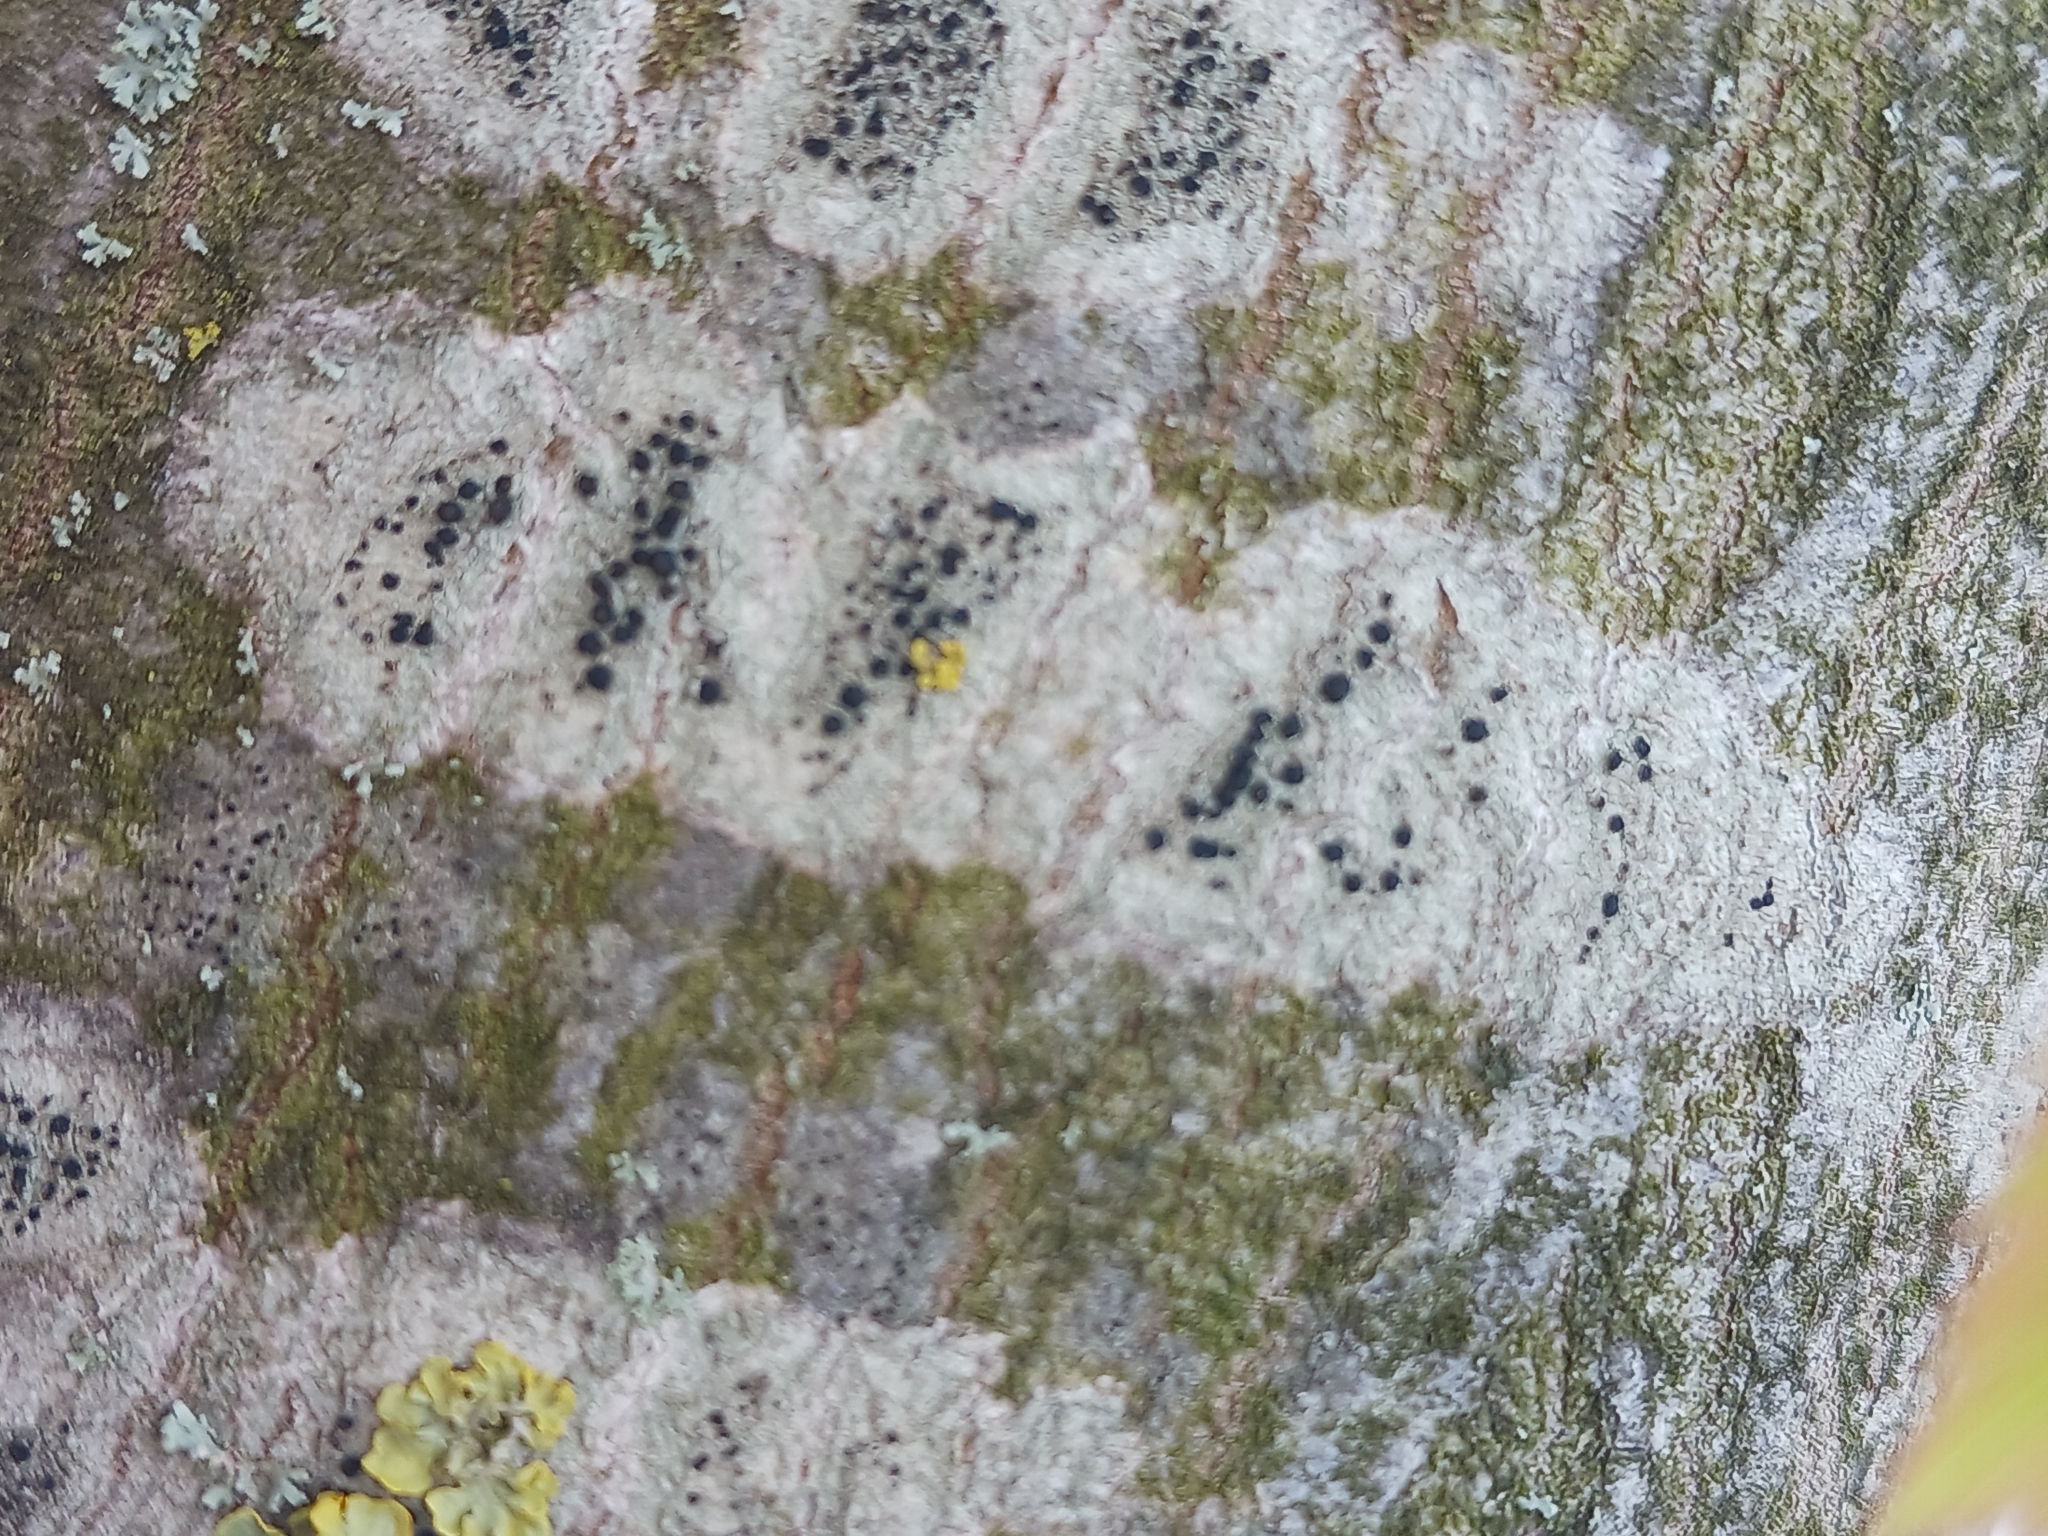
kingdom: Fungi
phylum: Ascomycota
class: Lecanoromycetes
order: Lecanorales
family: Lecanoraceae
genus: Lecidella
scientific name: Lecidella elaeochroma
